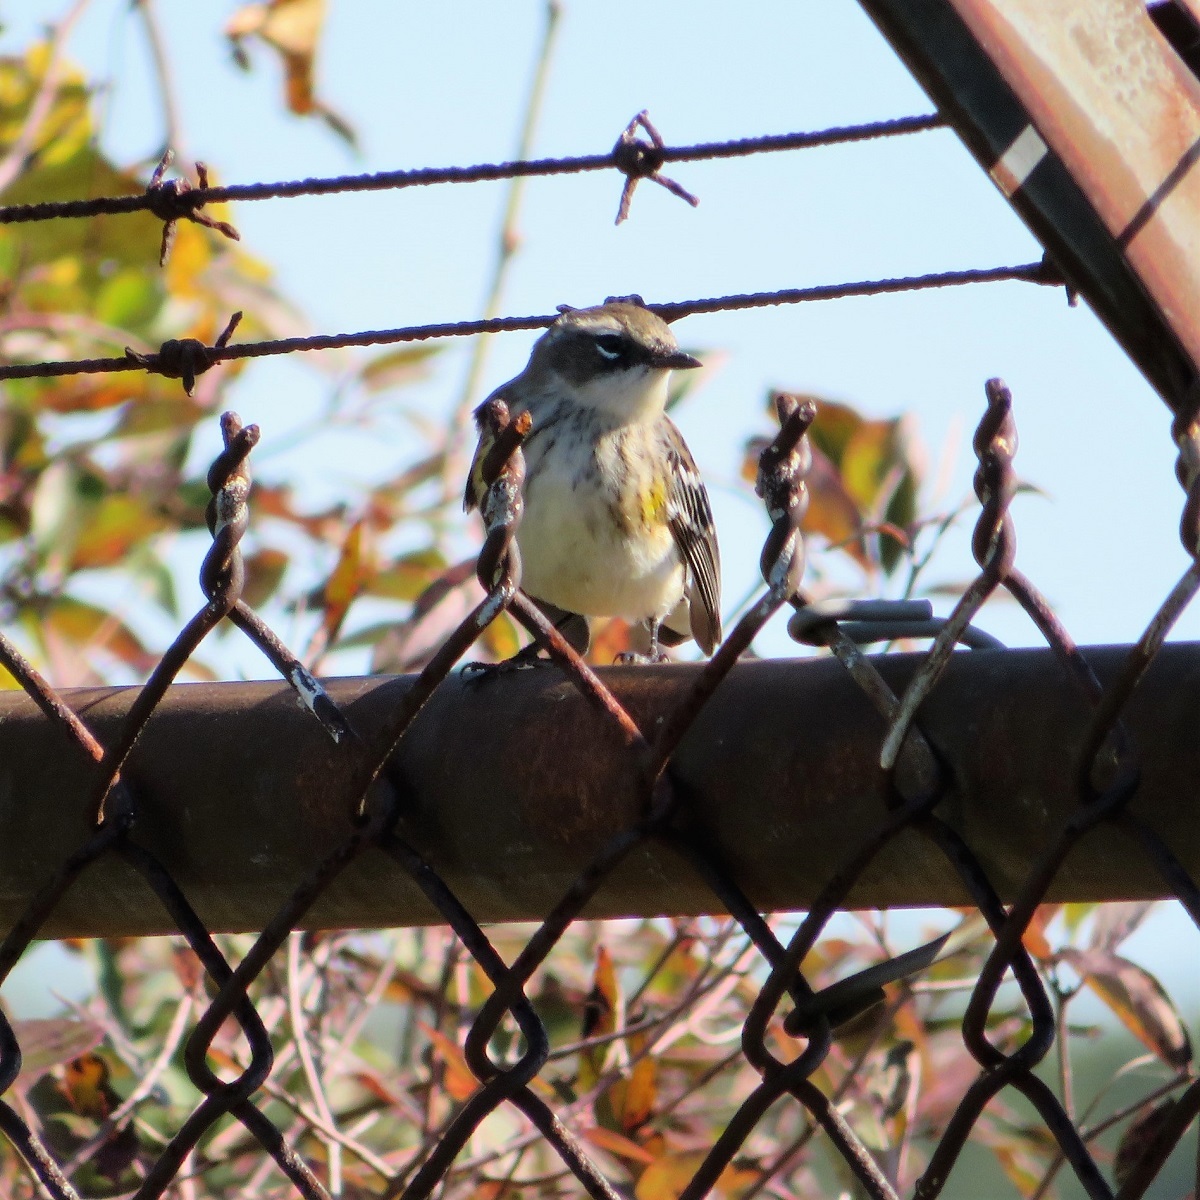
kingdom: Animalia
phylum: Chordata
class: Aves
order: Passeriformes
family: Parulidae
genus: Setophaga
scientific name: Setophaga coronata
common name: Myrtle warbler
